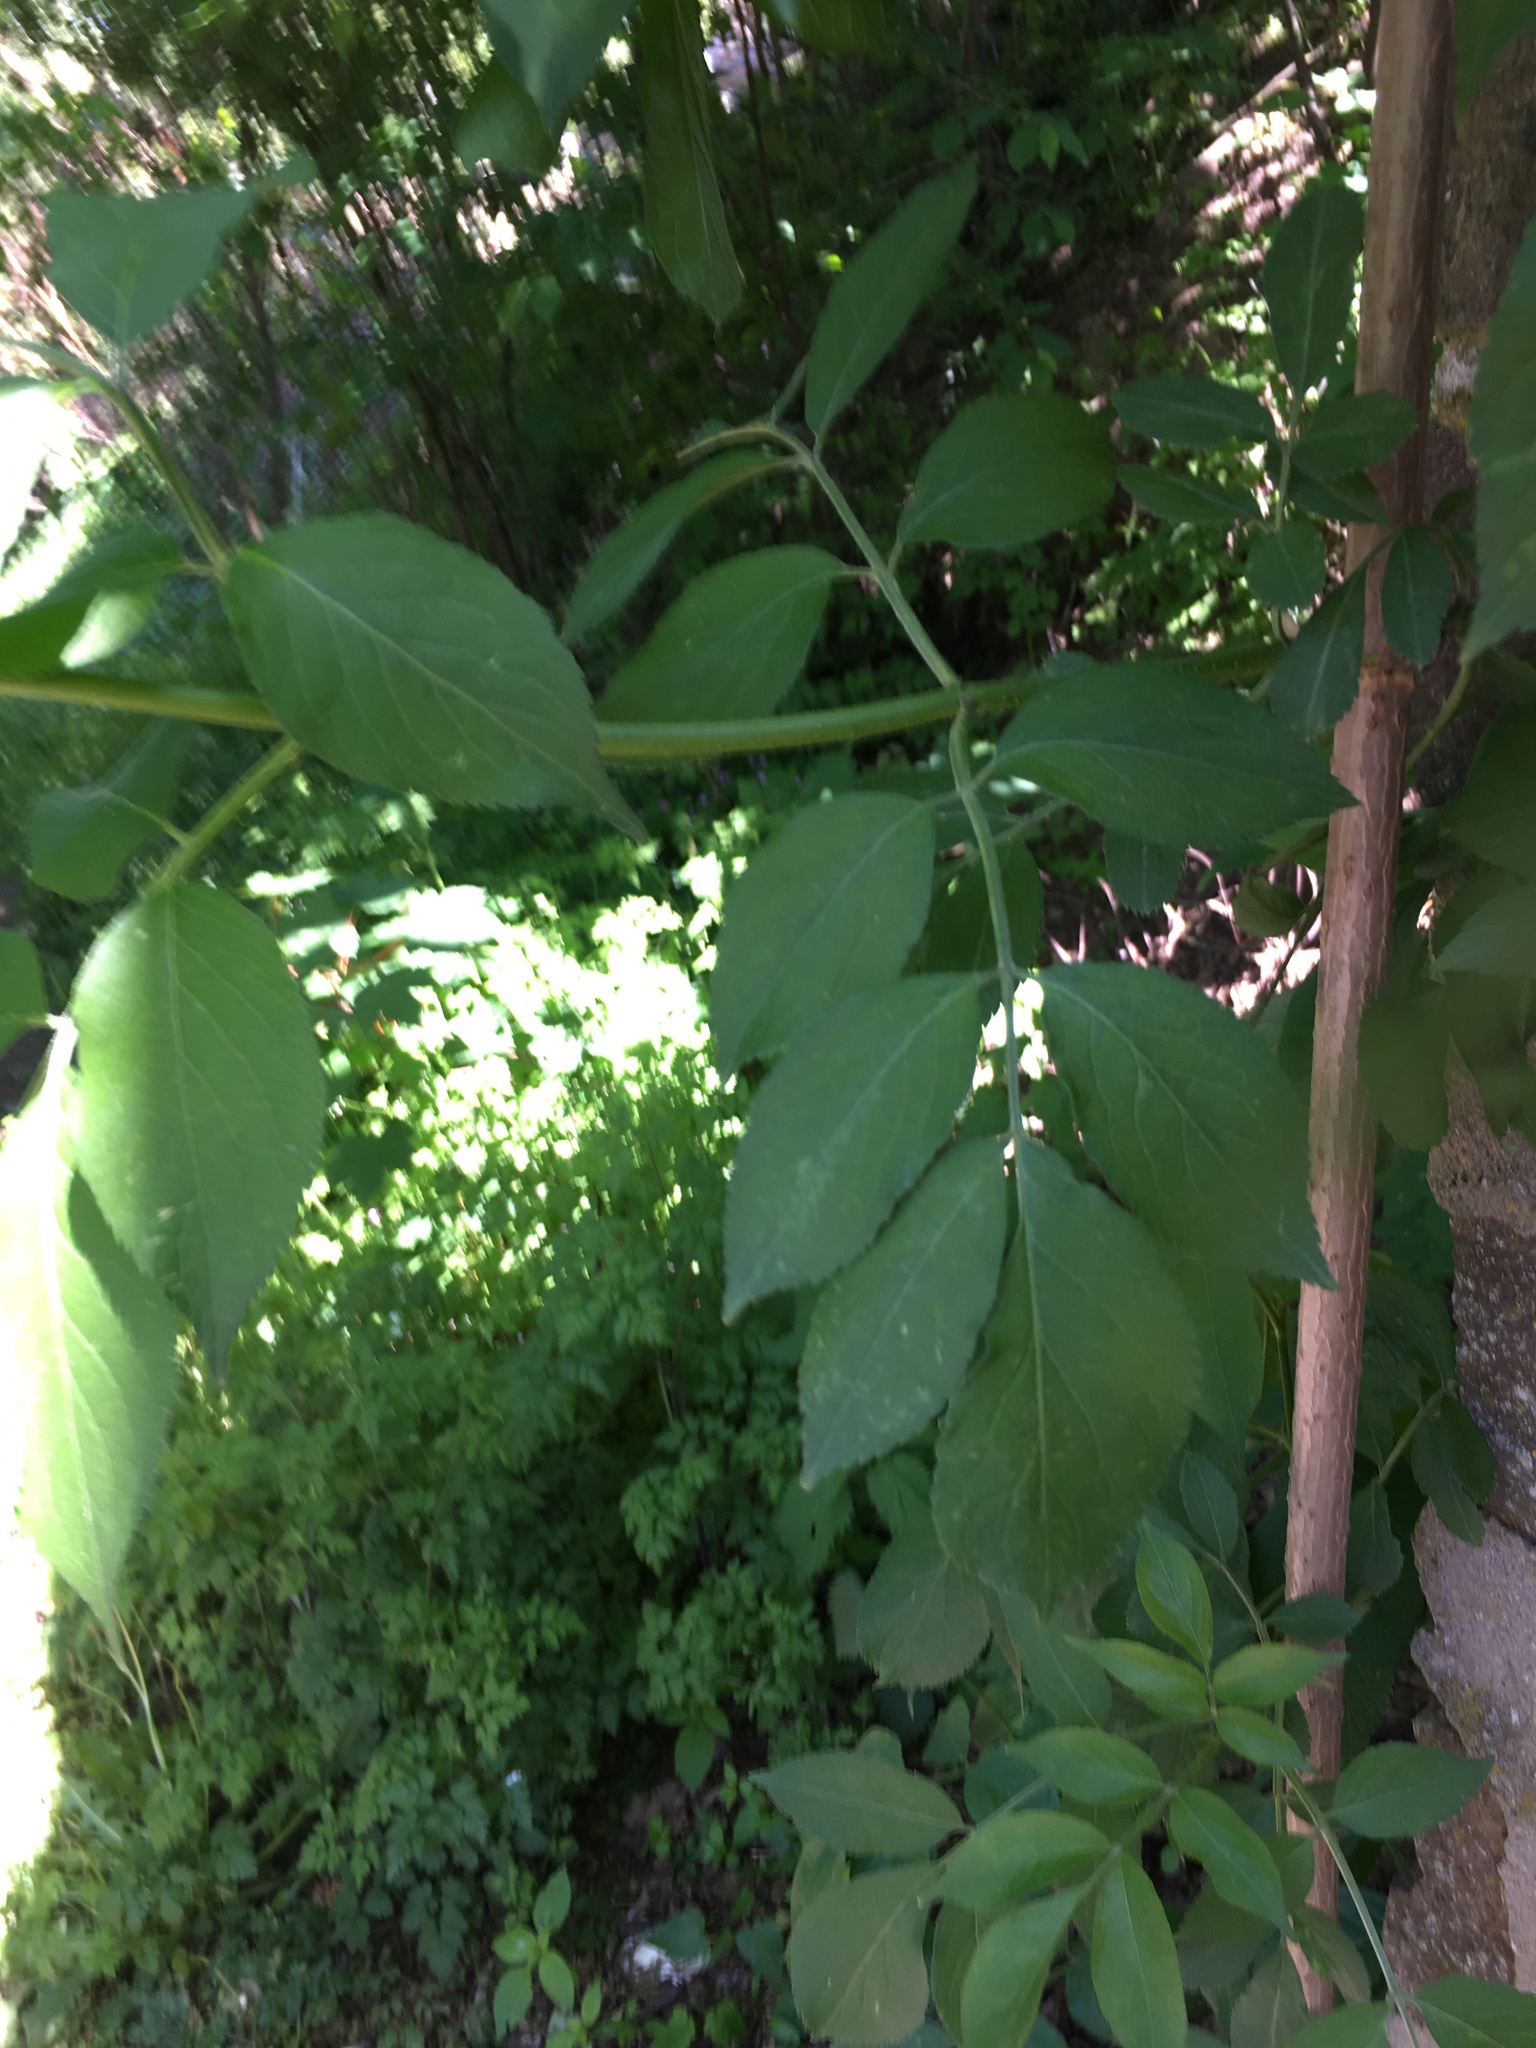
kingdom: Plantae
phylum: Tracheophyta
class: Magnoliopsida
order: Dipsacales
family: Viburnaceae
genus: Sambucus
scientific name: Sambucus nigra
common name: Elder
